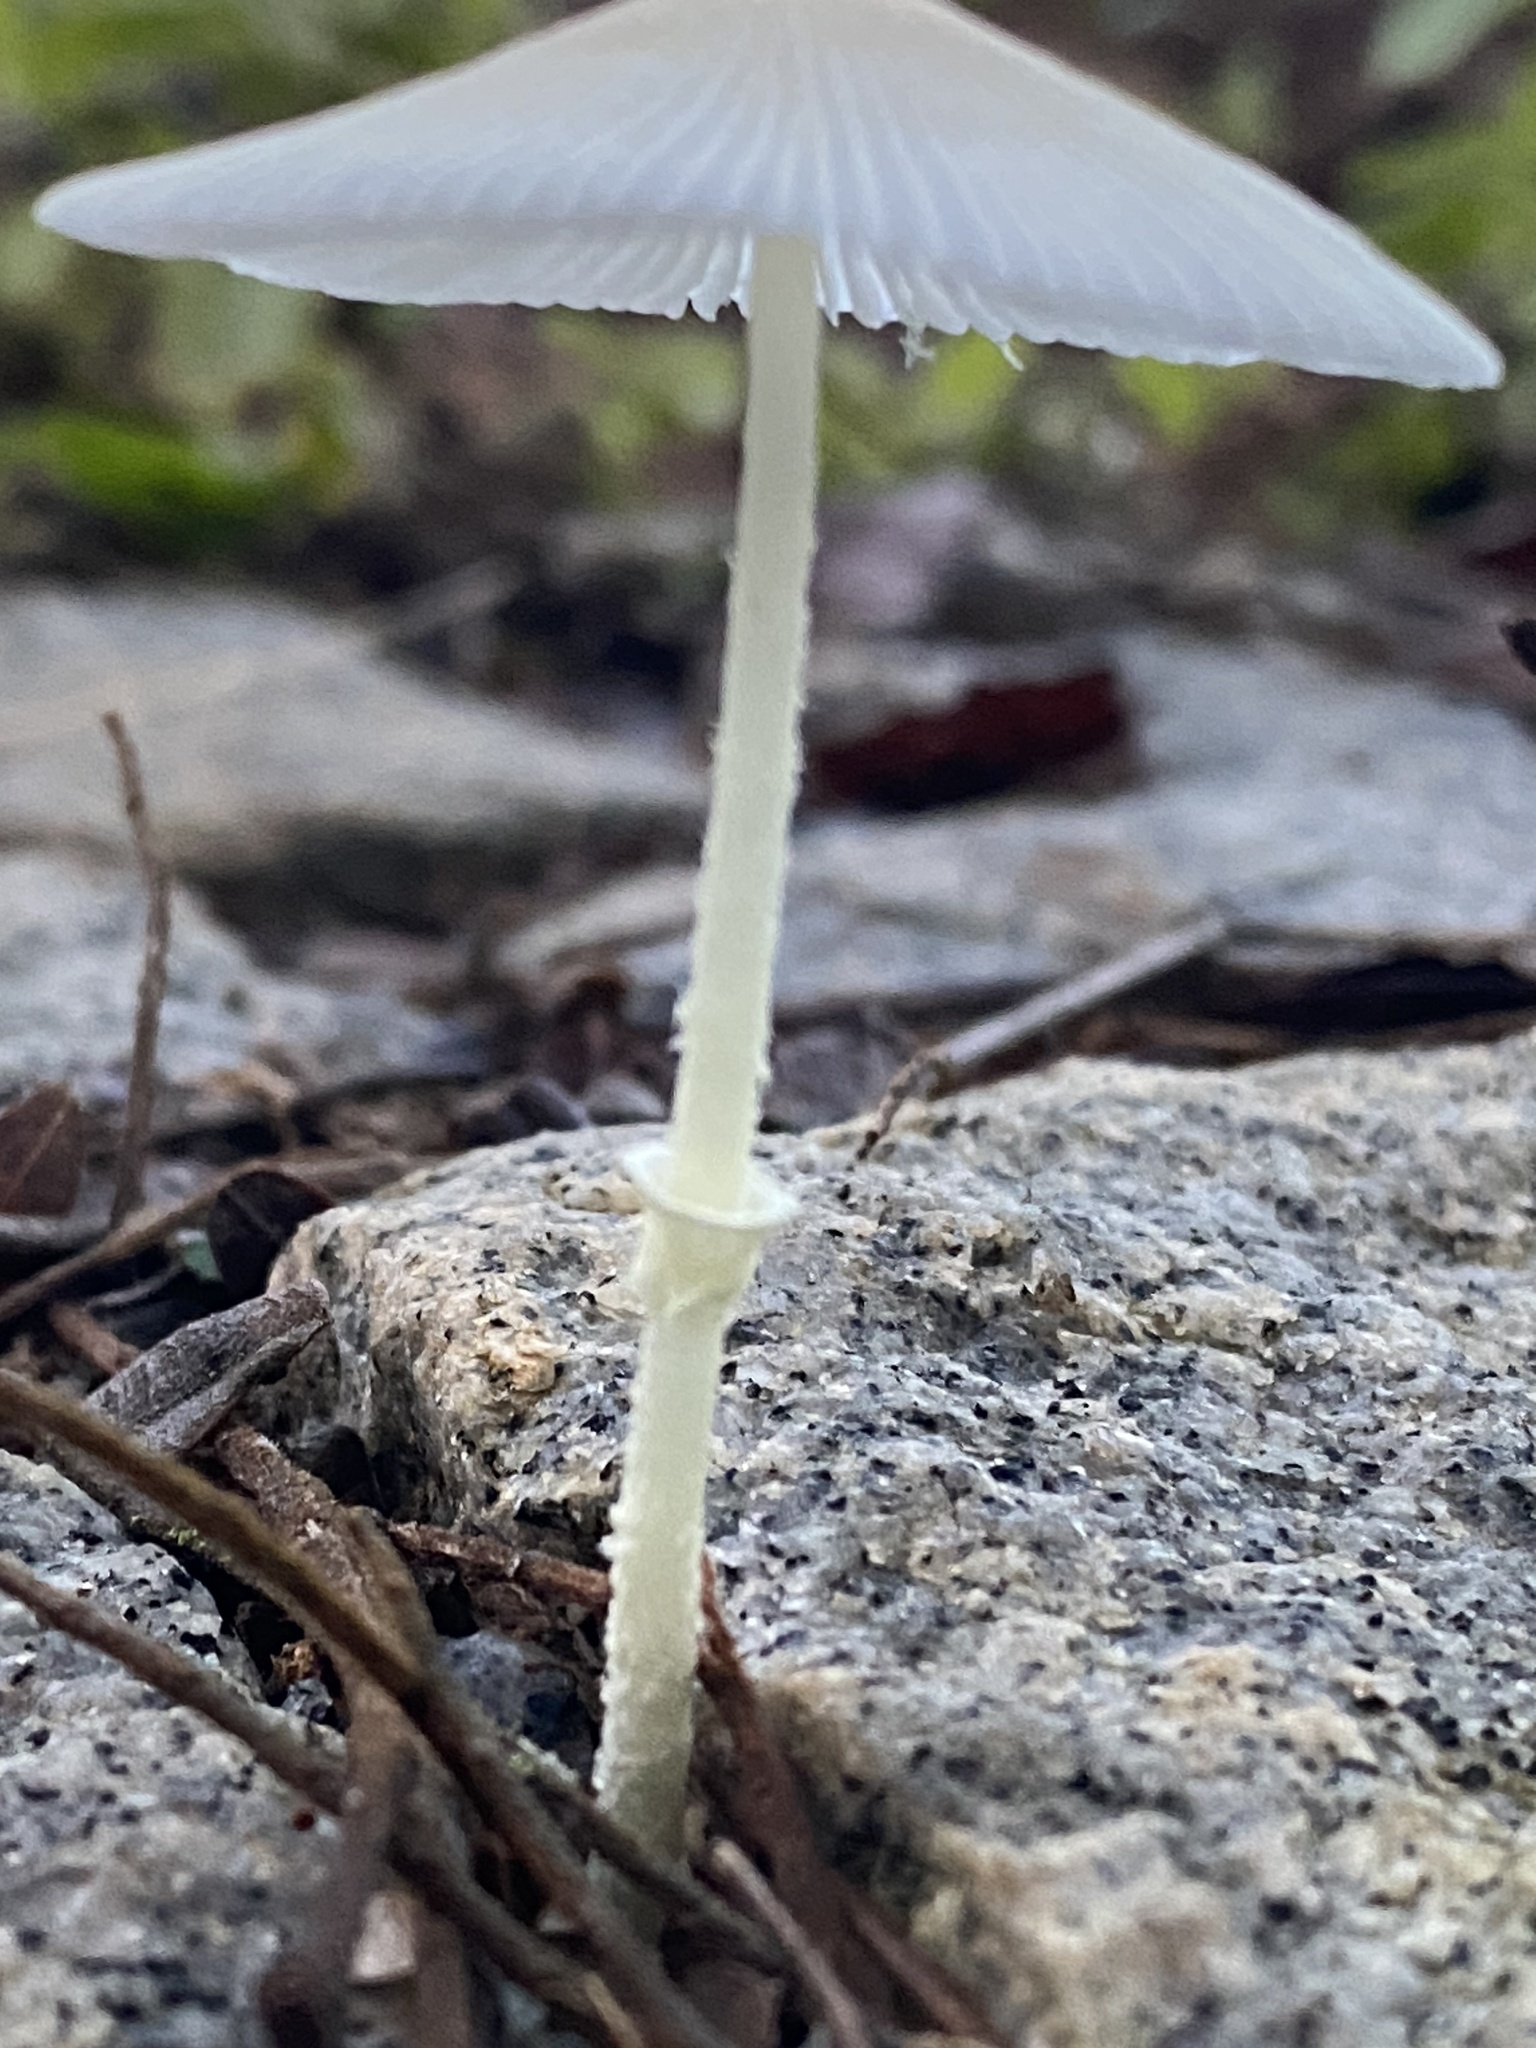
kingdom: Fungi
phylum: Basidiomycota
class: Agaricomycetes
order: Agaricales
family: Agaricaceae
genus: Leucocoprinus
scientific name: Leucocoprinus fragilissimus
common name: Fragile dapperling
